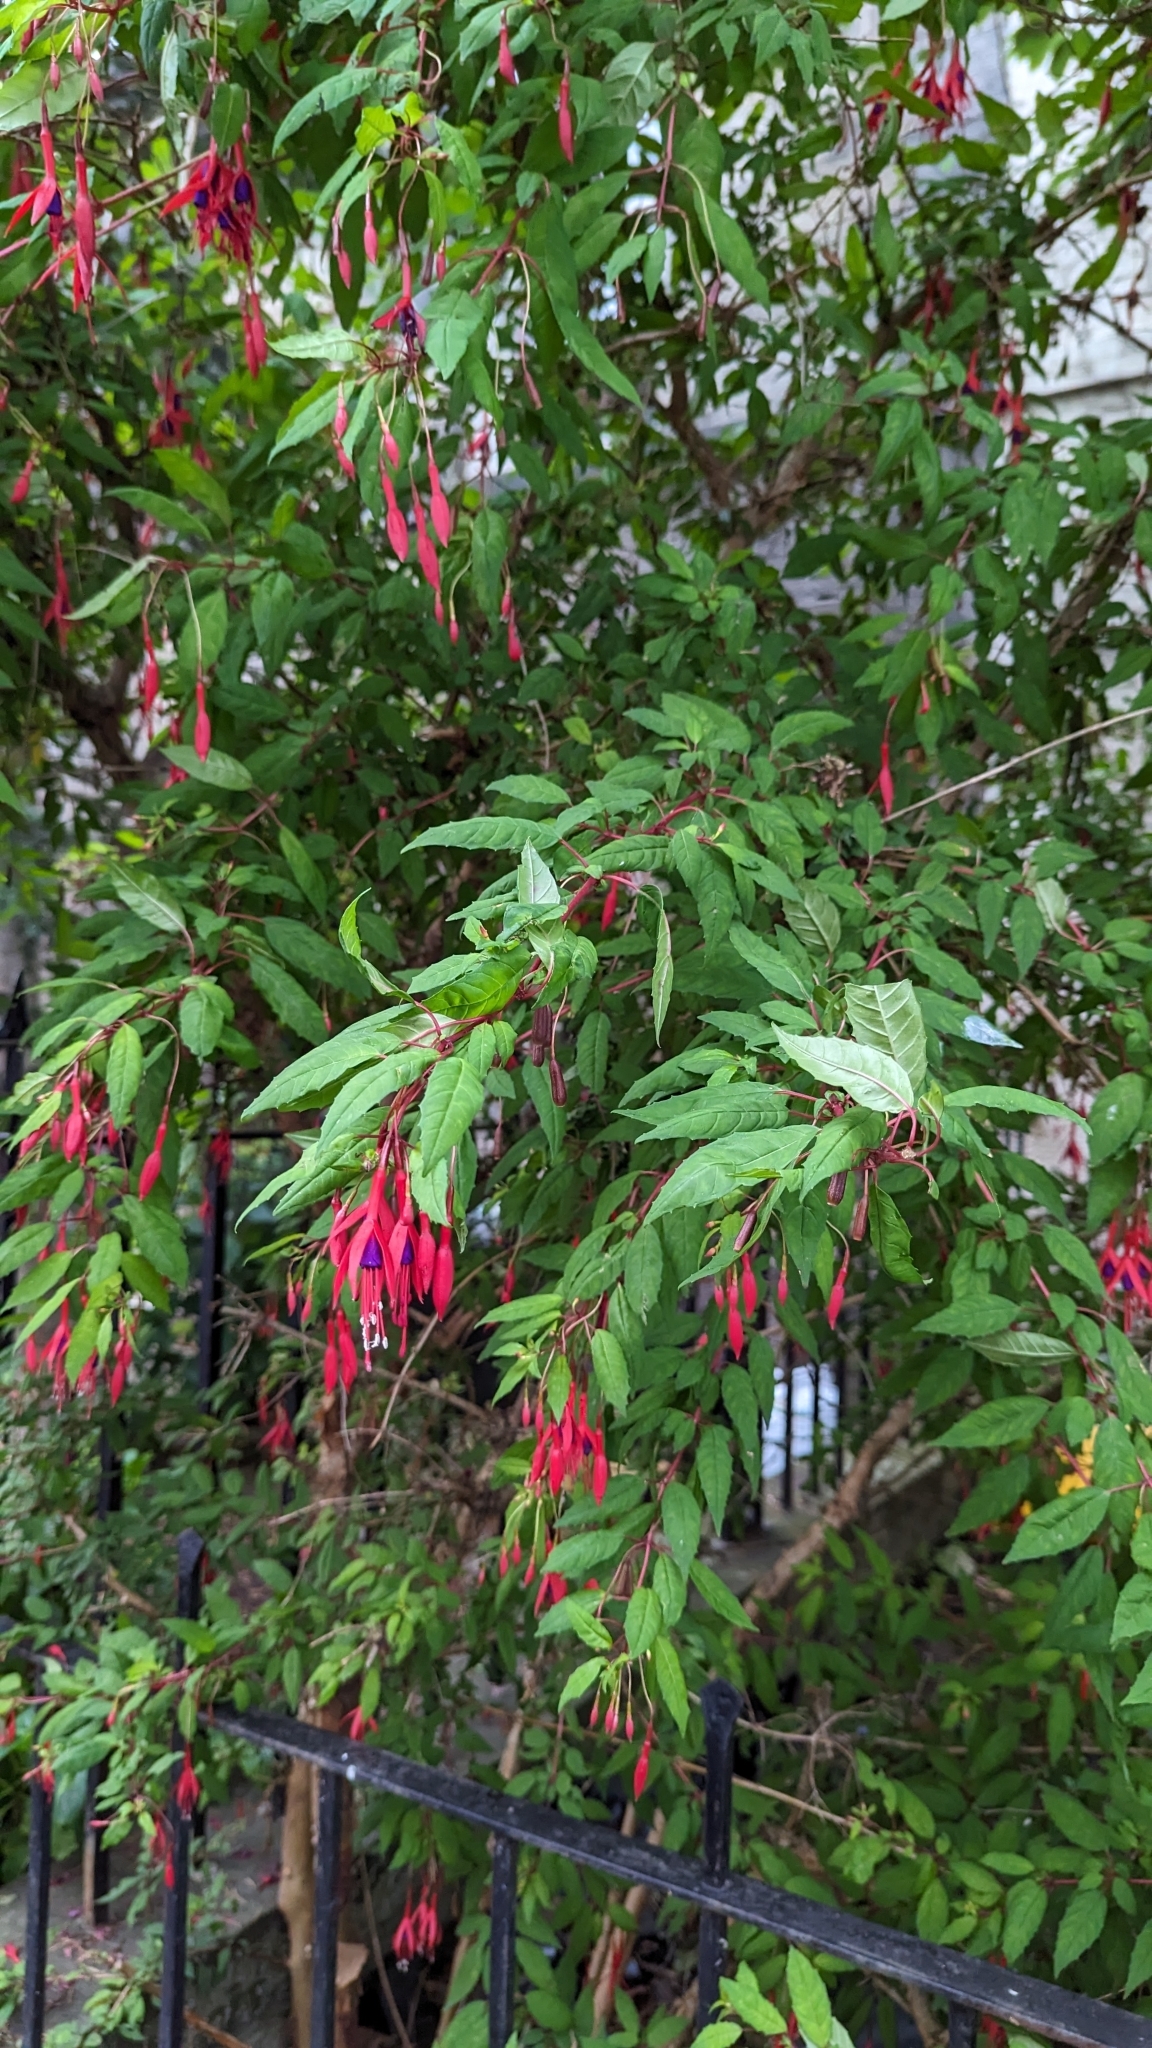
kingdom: Plantae
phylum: Tracheophyta
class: Magnoliopsida
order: Myrtales
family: Onagraceae
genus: Fuchsia
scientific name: Fuchsia magellanica
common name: Hardy fuchsia
